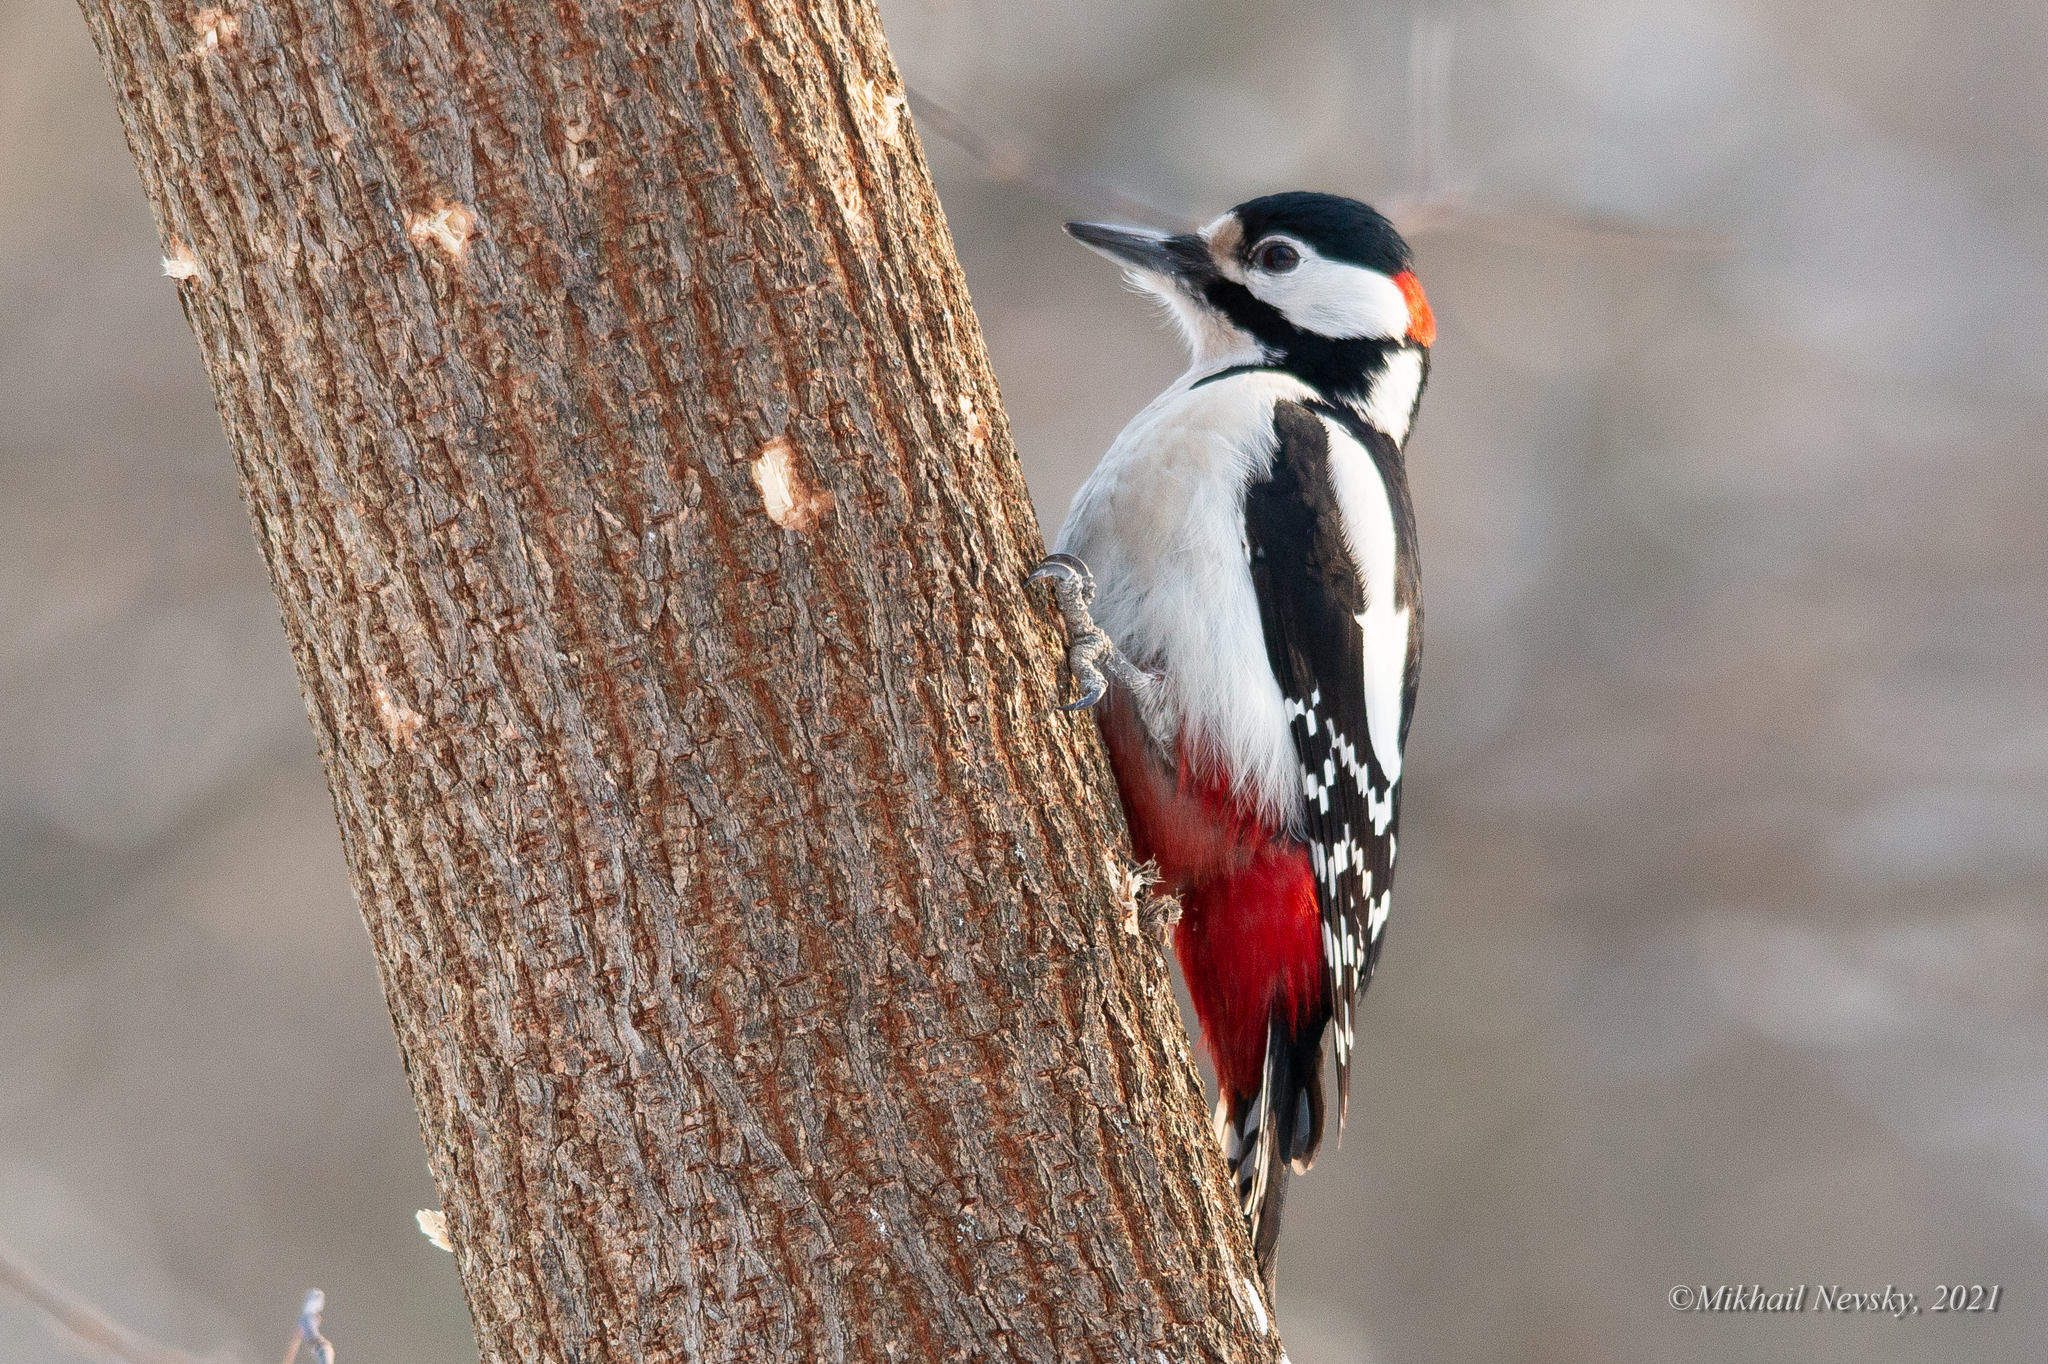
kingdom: Animalia
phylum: Chordata
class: Aves
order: Piciformes
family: Picidae
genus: Dendrocopos
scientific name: Dendrocopos major
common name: Great spotted woodpecker
